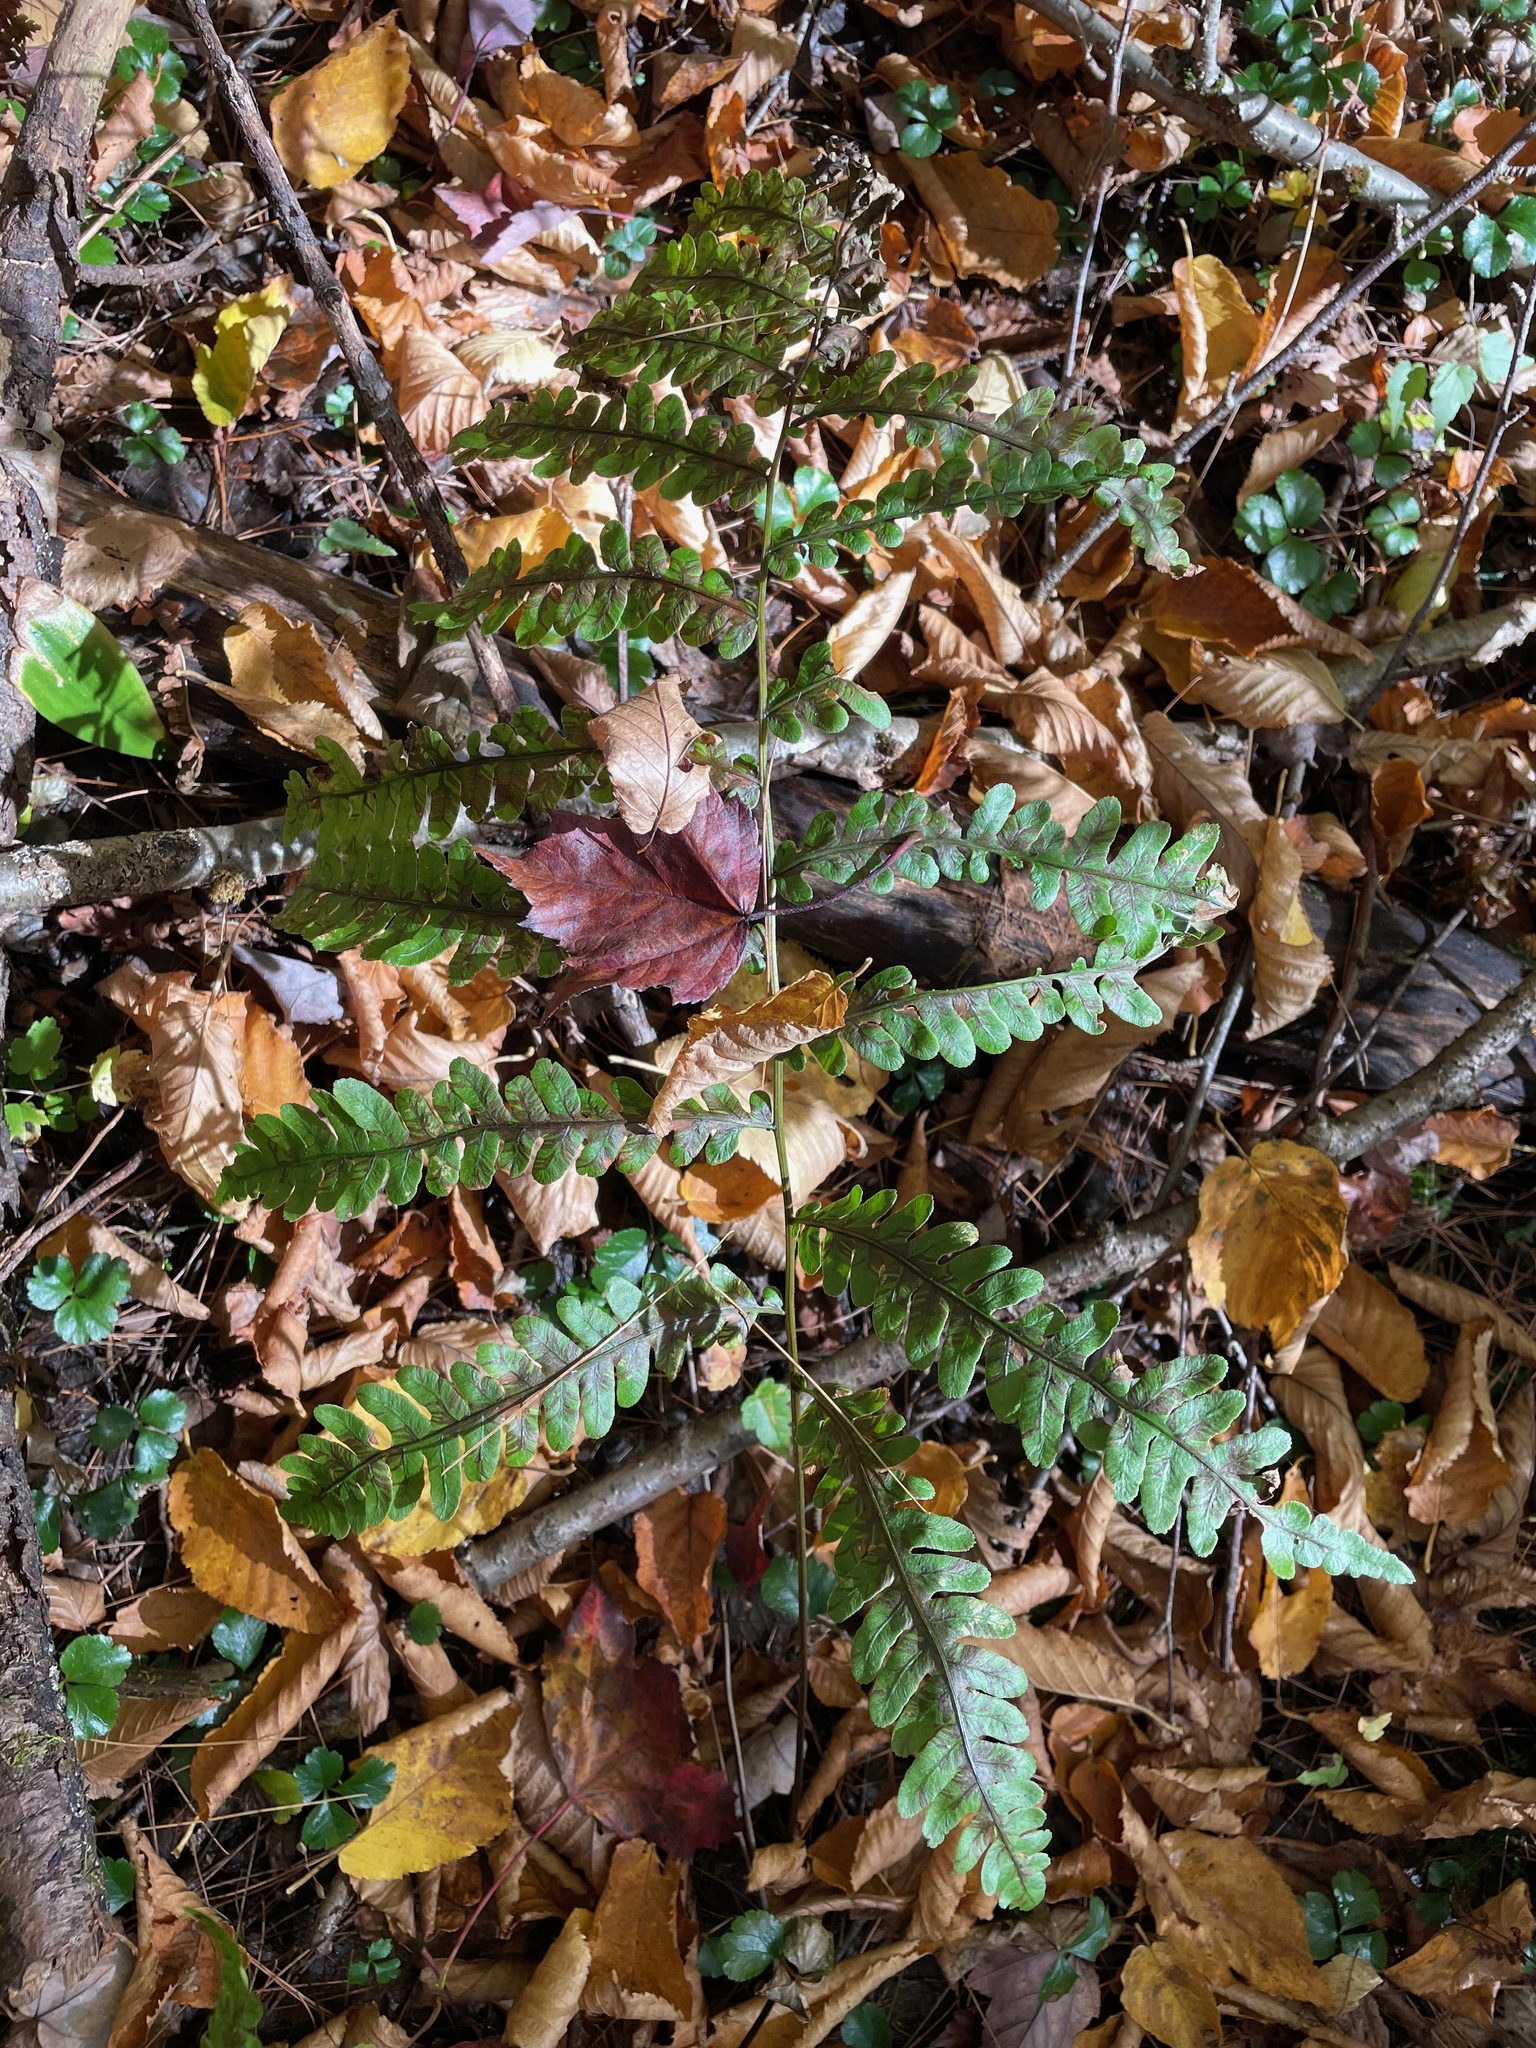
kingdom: Plantae
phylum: Tracheophyta
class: Polypodiopsida
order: Polypodiales
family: Blechnaceae
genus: Anchistea
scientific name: Anchistea virginica
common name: Virginia chain fern
